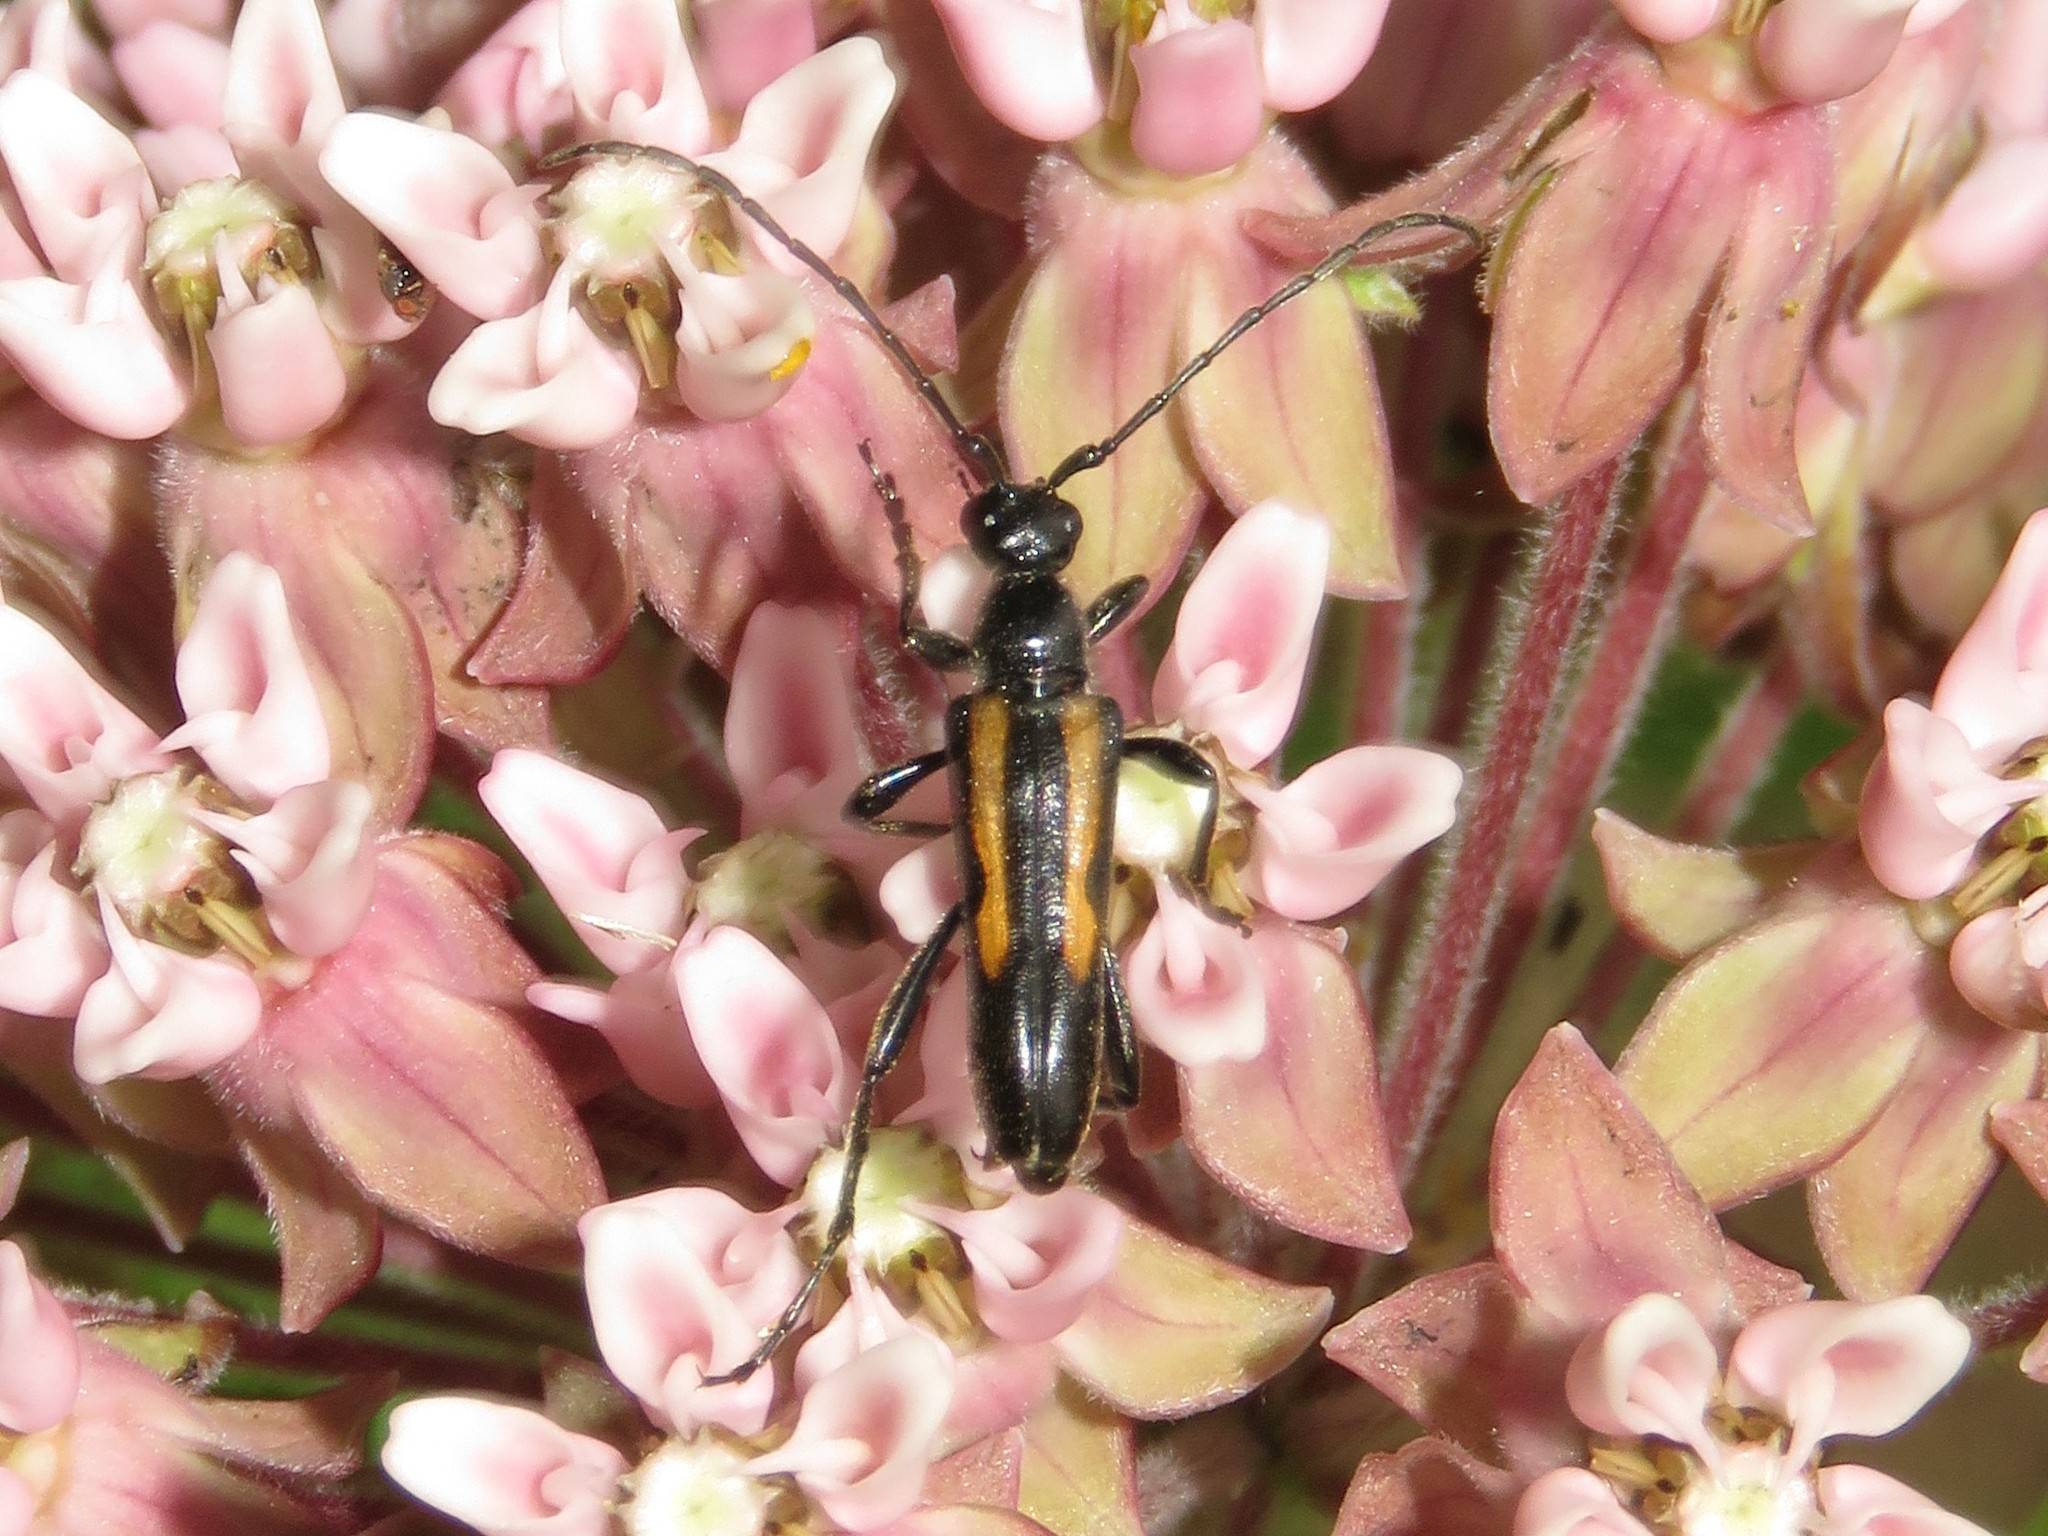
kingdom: Animalia
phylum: Arthropoda
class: Insecta
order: Coleoptera
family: Cerambycidae
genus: Strangalepta
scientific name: Strangalepta abbreviata
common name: Strangalepta flower longhorn beetle
